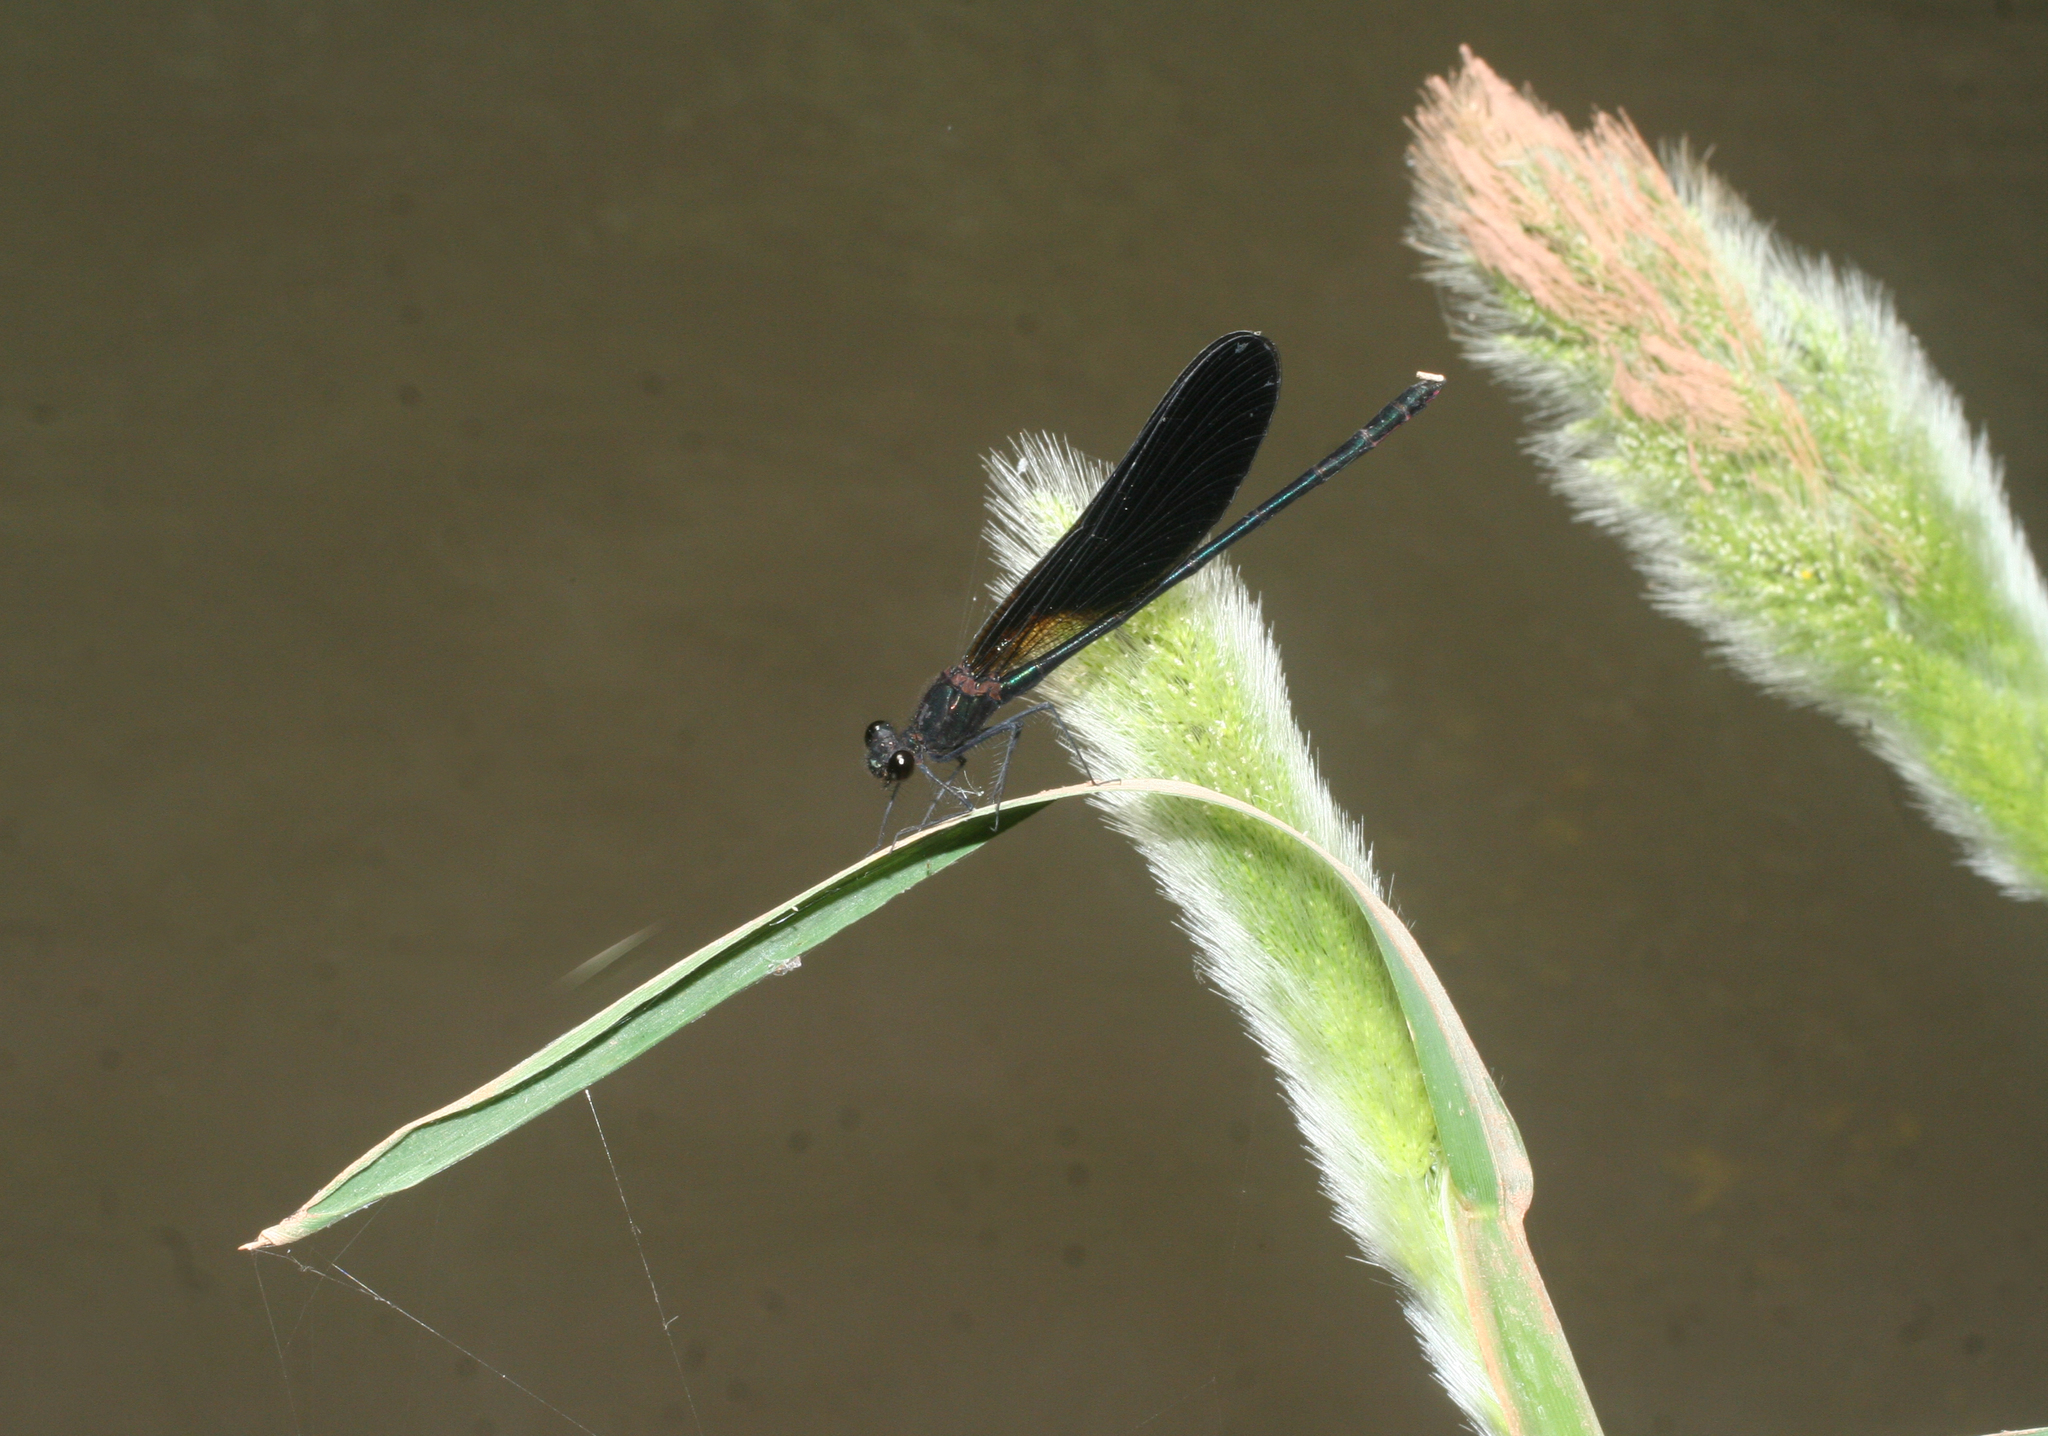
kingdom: Animalia
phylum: Arthropoda
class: Insecta
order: Odonata
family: Calopterygidae
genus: Calopteryx
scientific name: Calopteryx haemorrhoidalis
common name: Copper demoiselle
